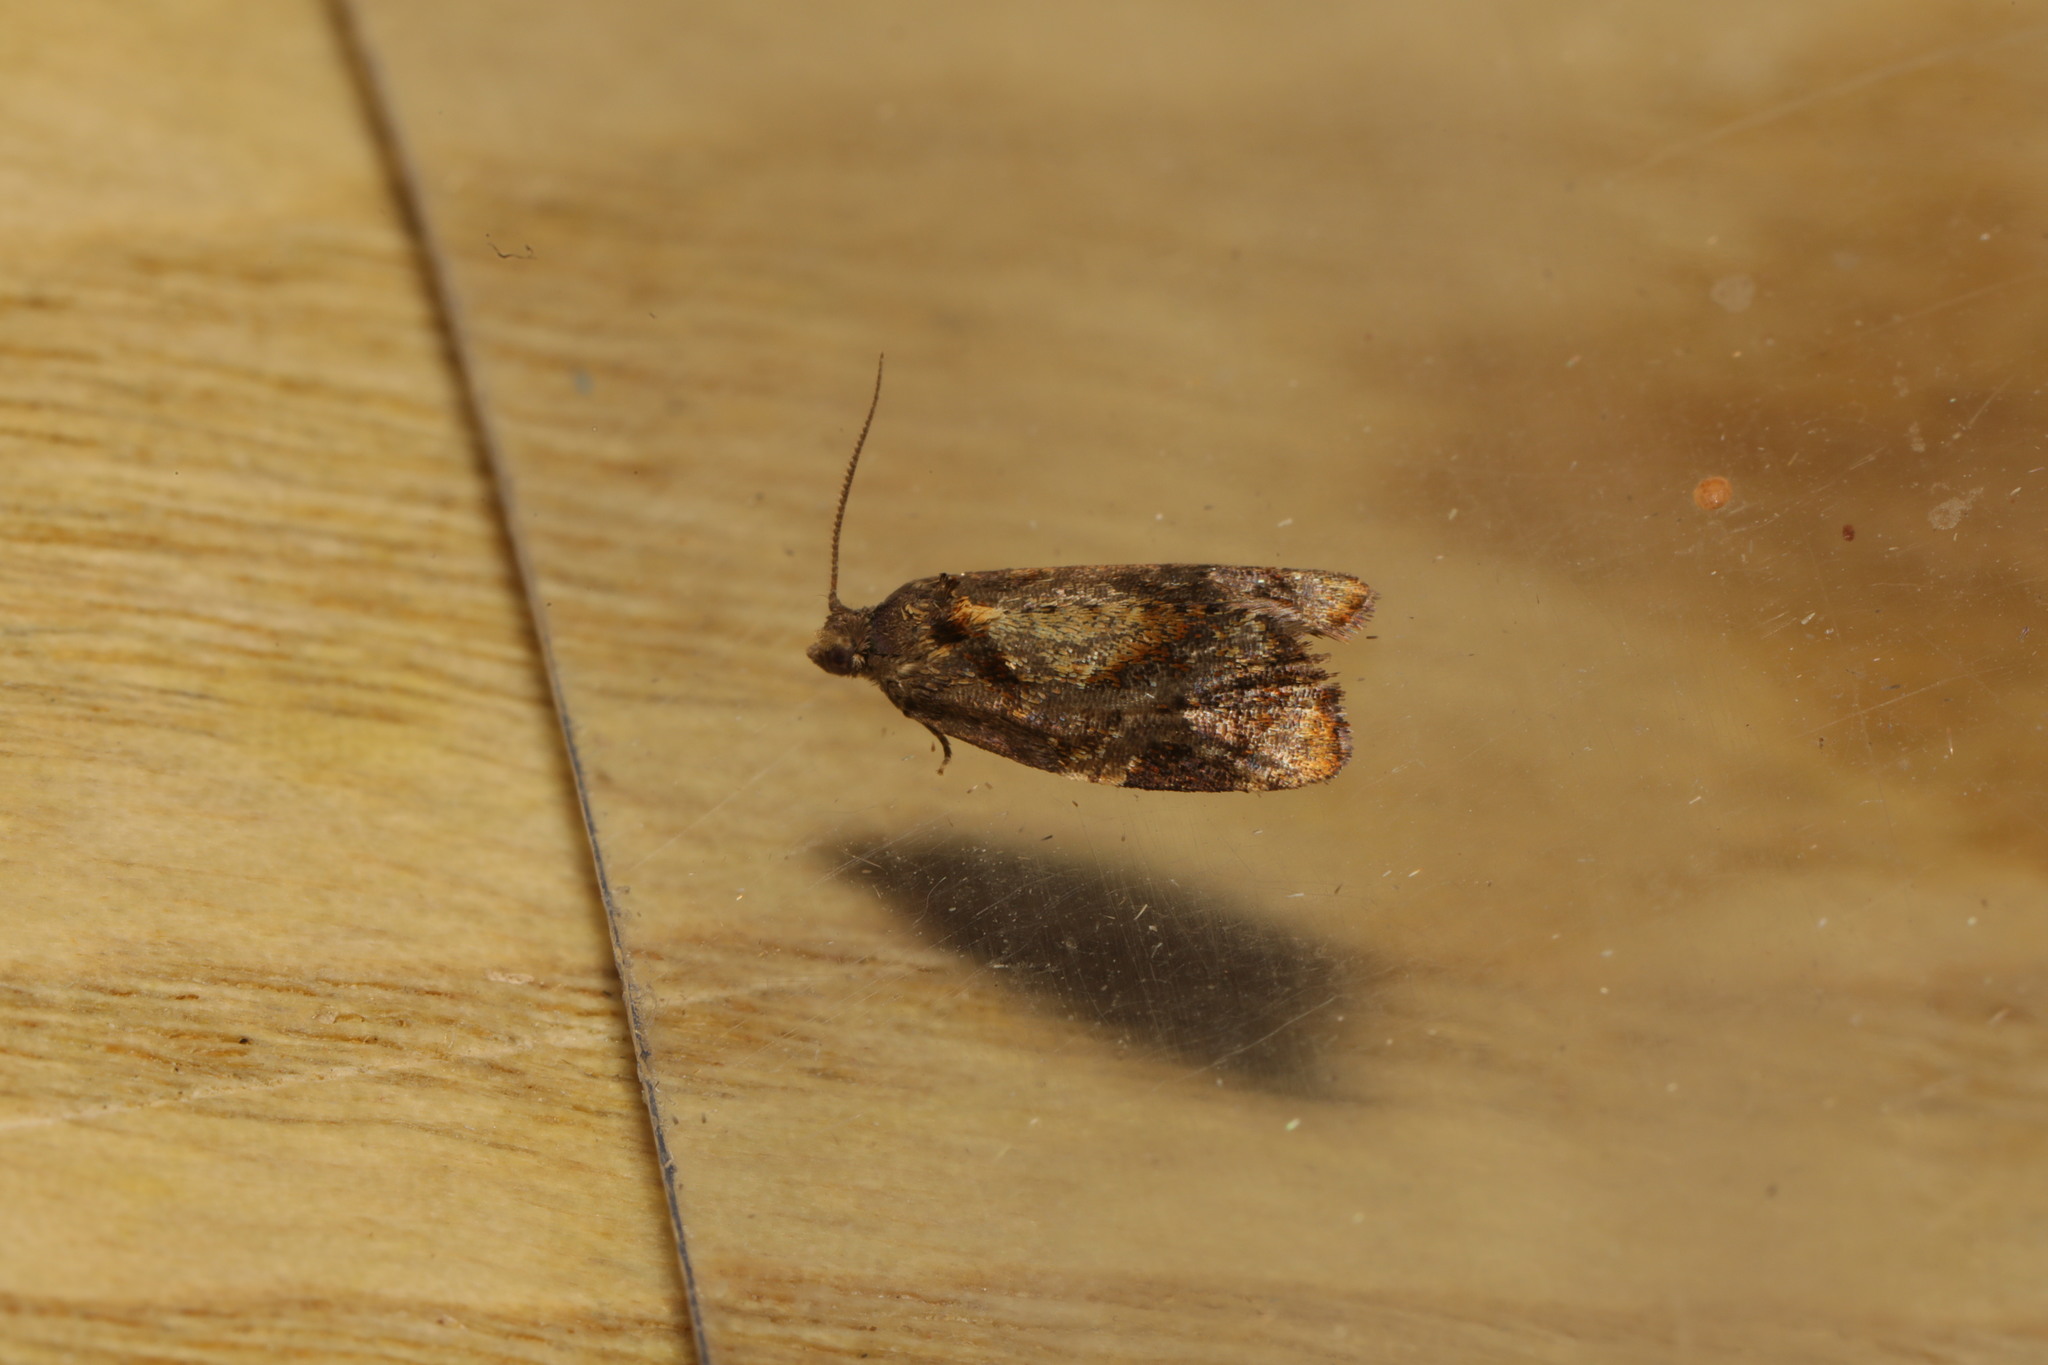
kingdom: Animalia
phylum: Arthropoda
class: Insecta
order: Lepidoptera
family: Tortricidae
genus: Ditula
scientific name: Ditula angustiorana
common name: Red-barred tortrix
